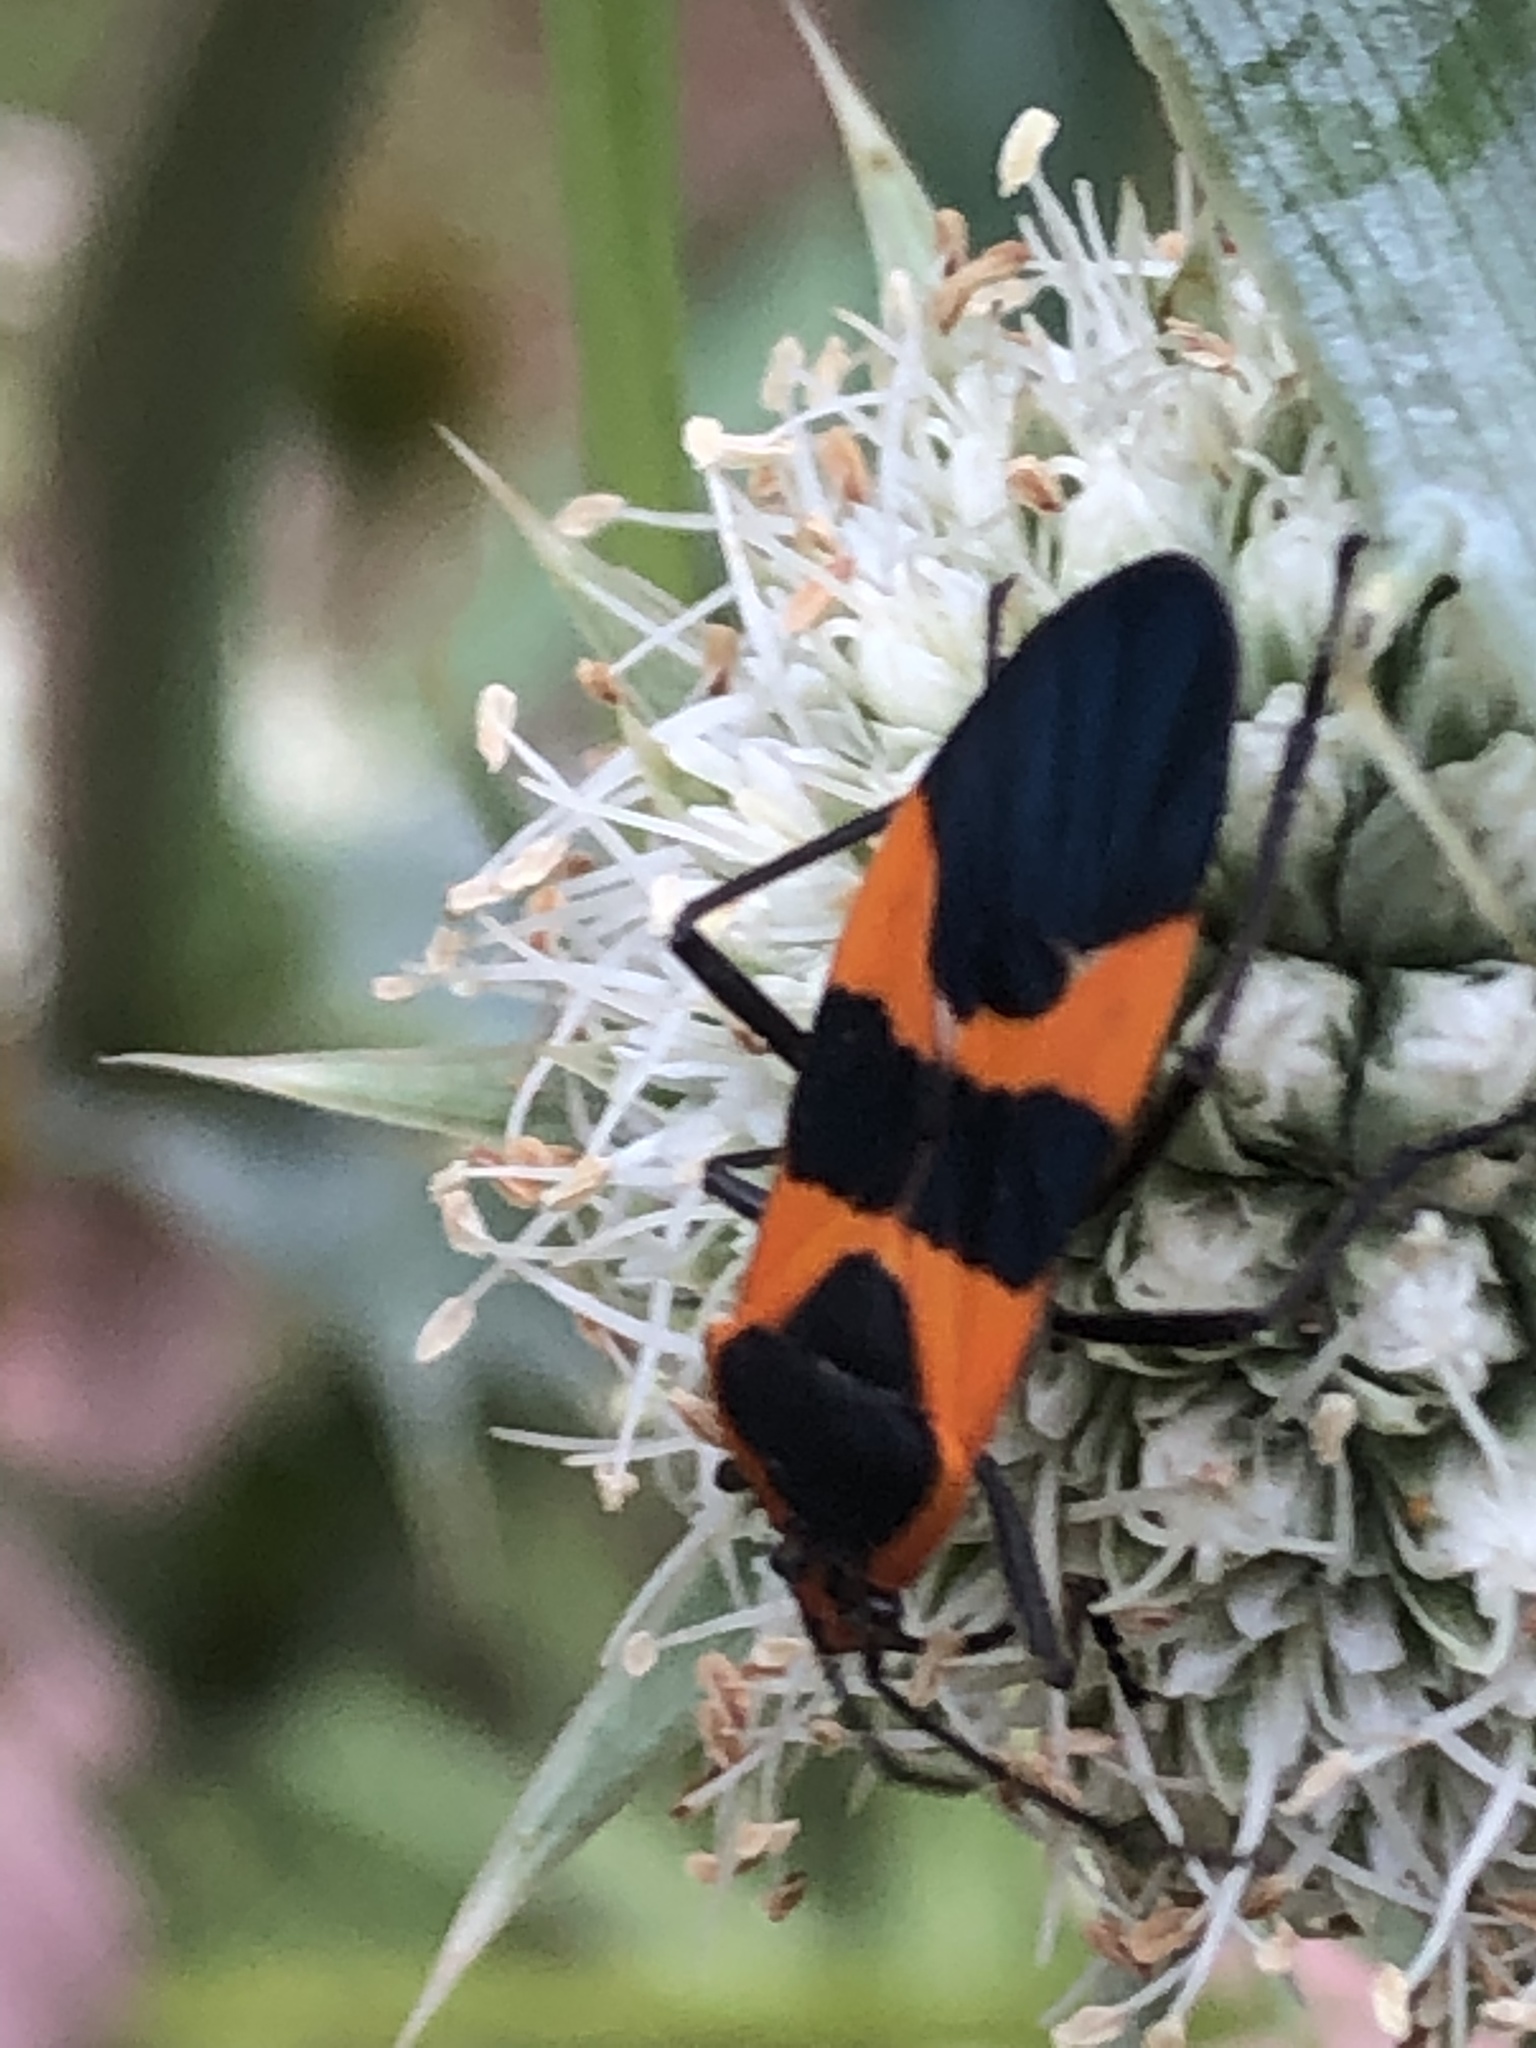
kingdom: Animalia
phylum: Arthropoda
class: Insecta
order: Hemiptera
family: Lygaeidae
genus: Oncopeltus
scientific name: Oncopeltus fasciatus
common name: Large milkweed bug
